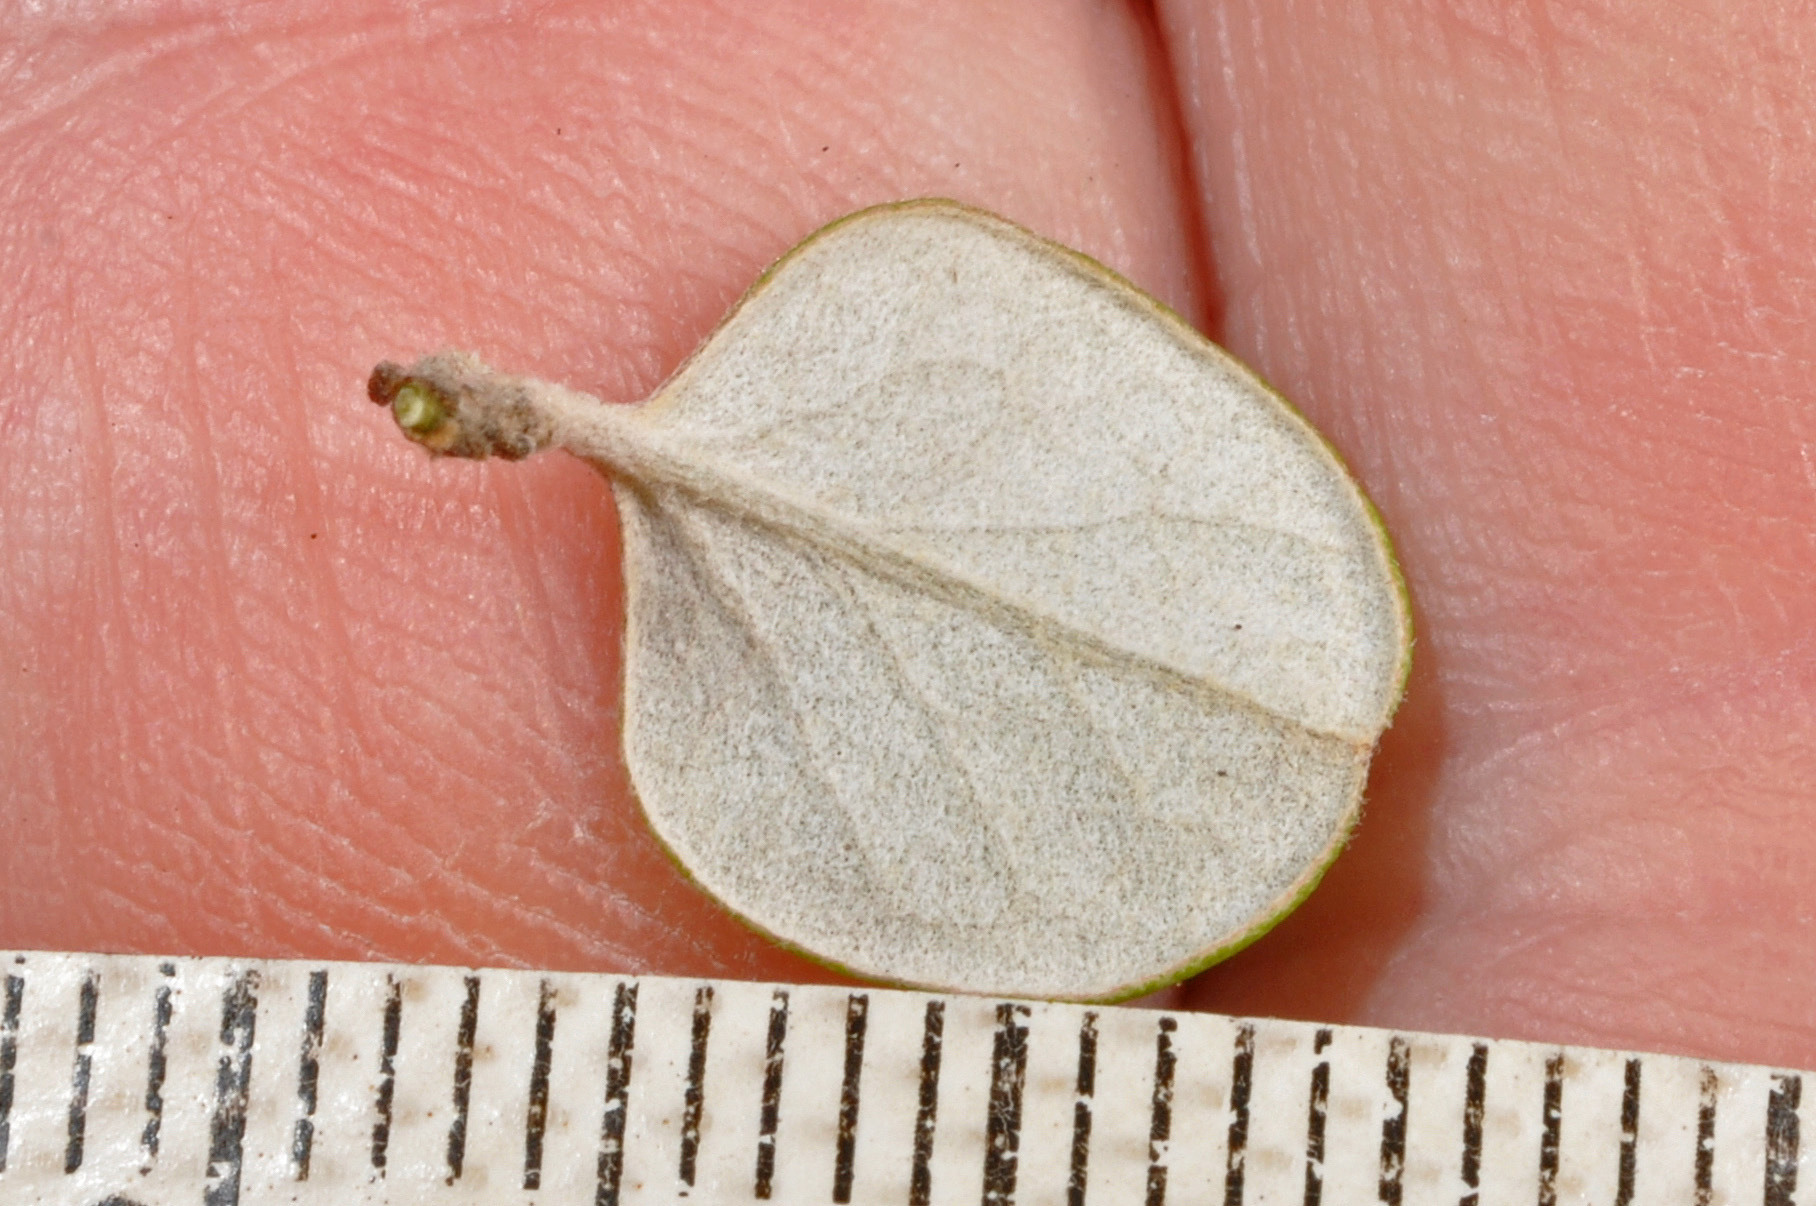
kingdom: Plantae
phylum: Tracheophyta
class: Magnoliopsida
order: Asterales
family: Asteraceae
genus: Ozothamnus
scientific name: Ozothamnus glomeratus
